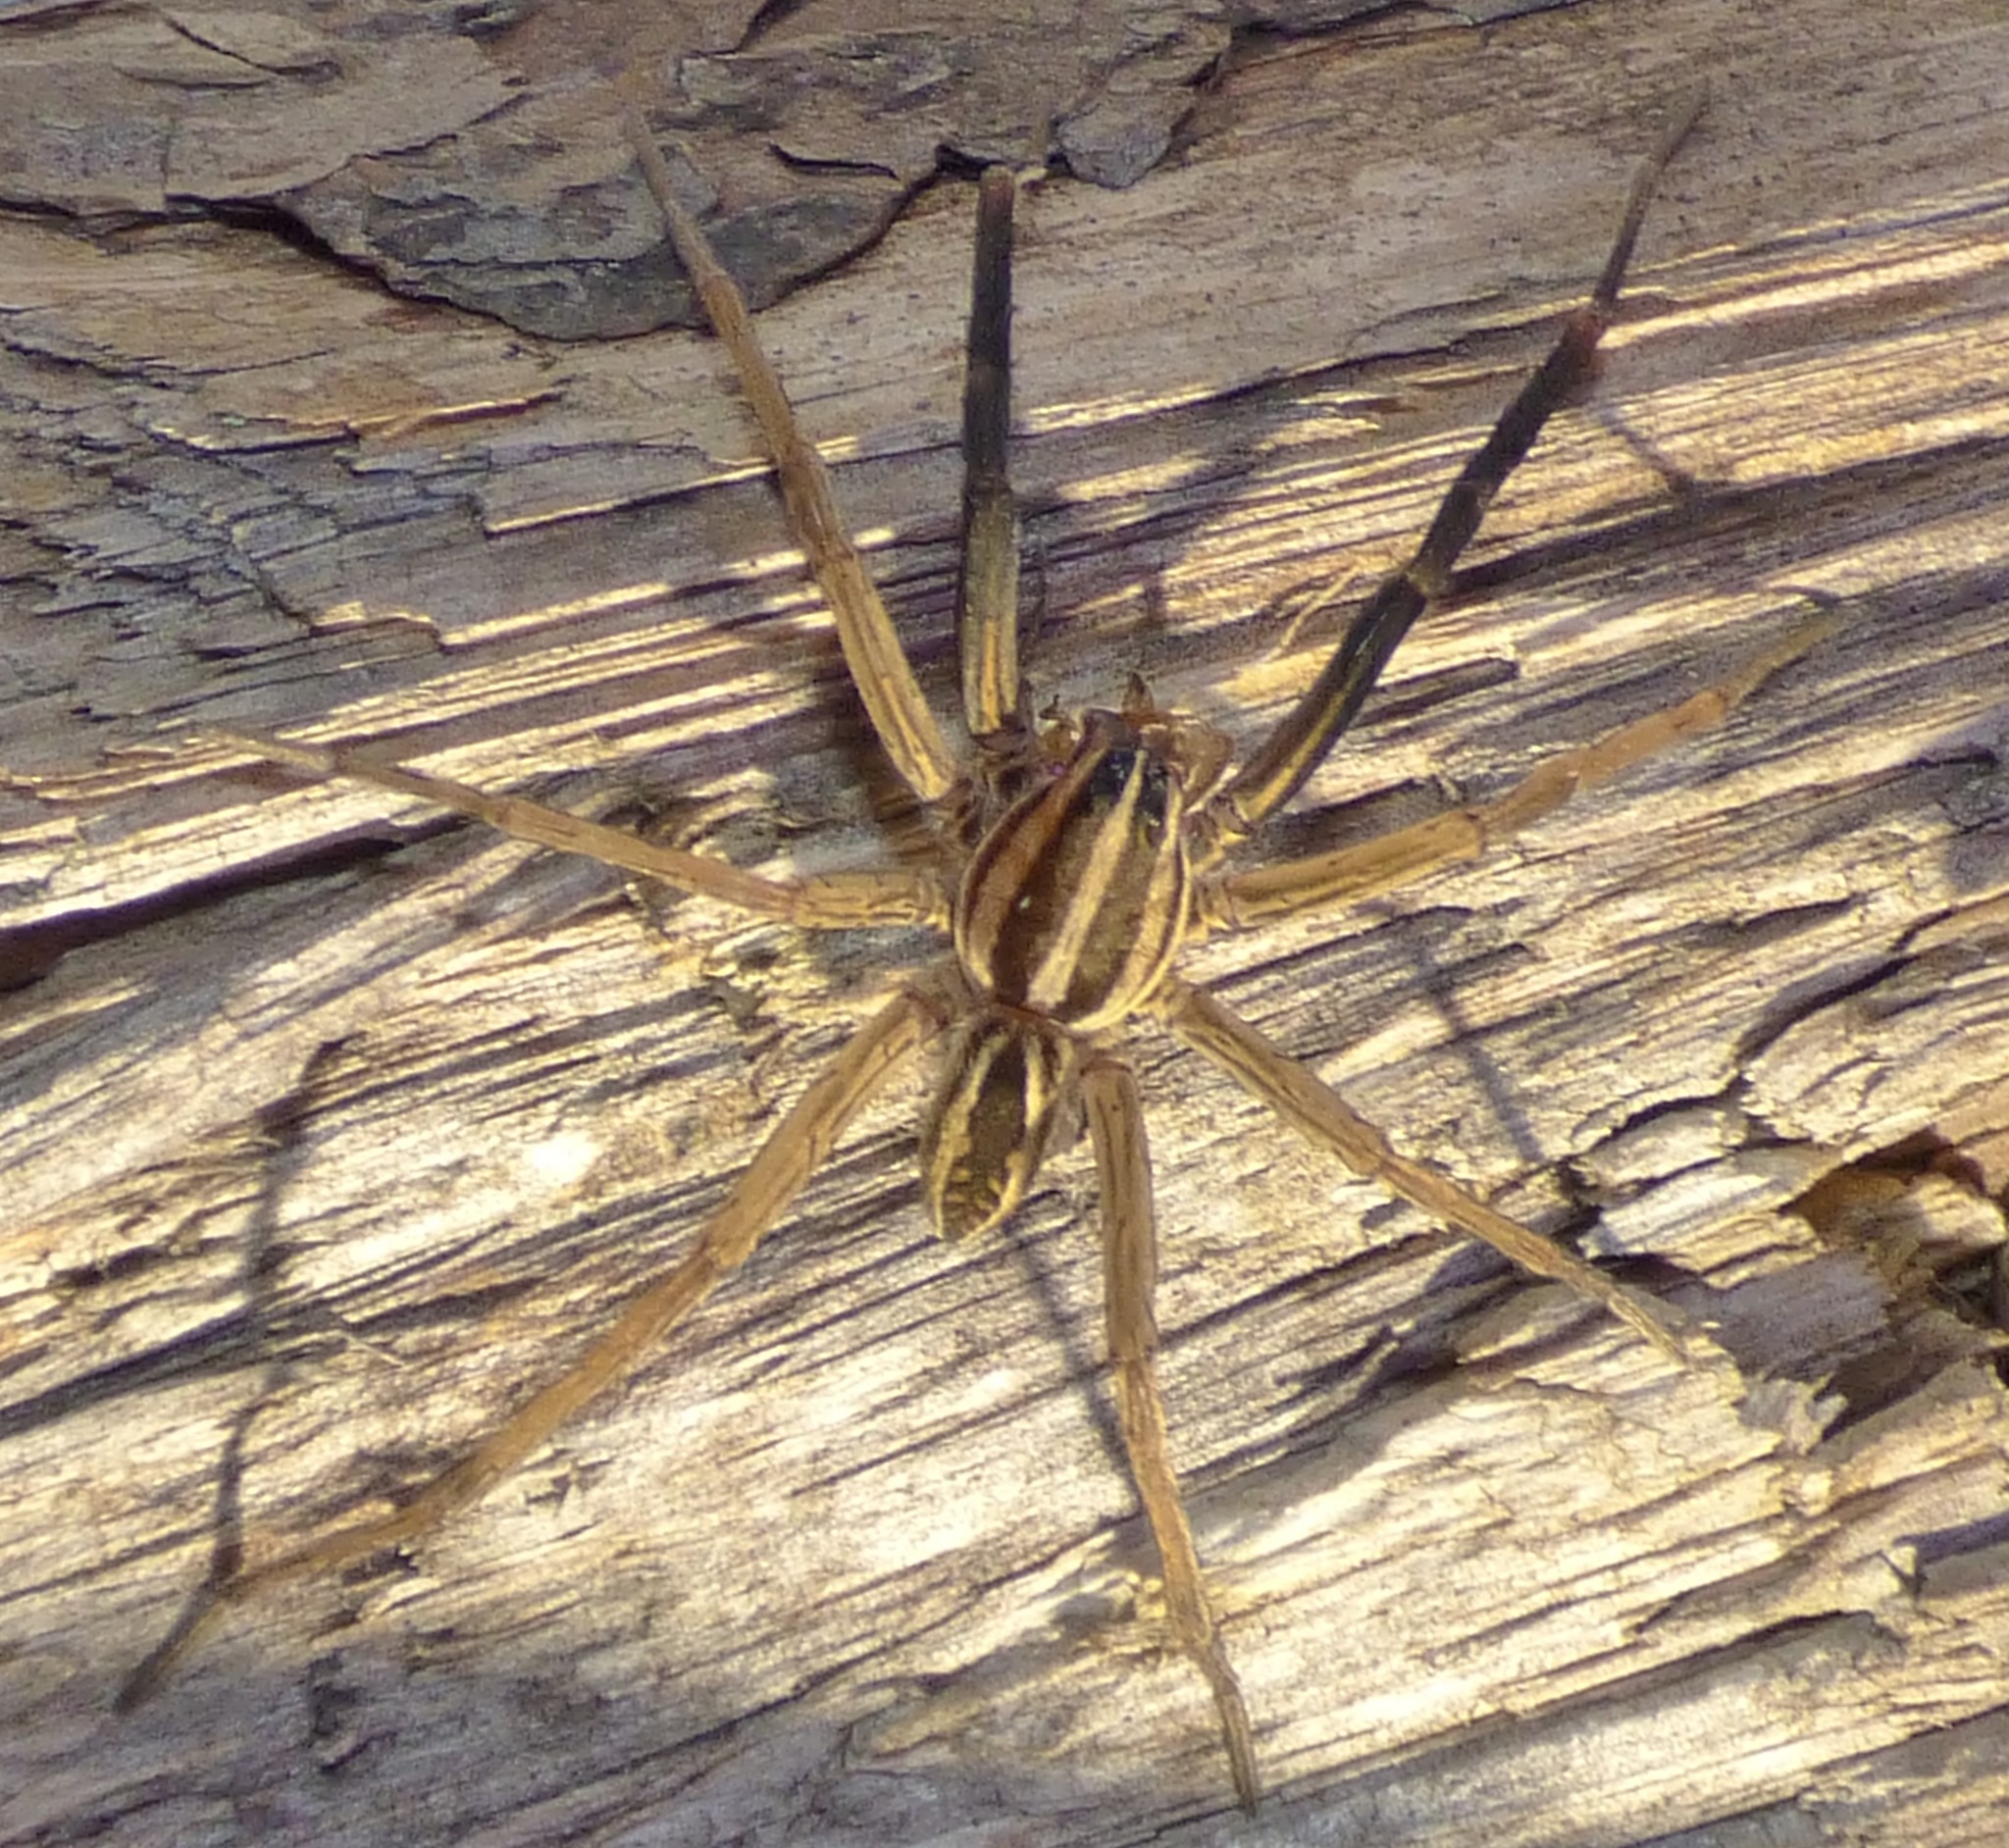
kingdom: Animalia
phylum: Arthropoda
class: Arachnida
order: Araneae
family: Lycosidae
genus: Rabidosa
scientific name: Rabidosa rabida
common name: Rabid wolf spider
